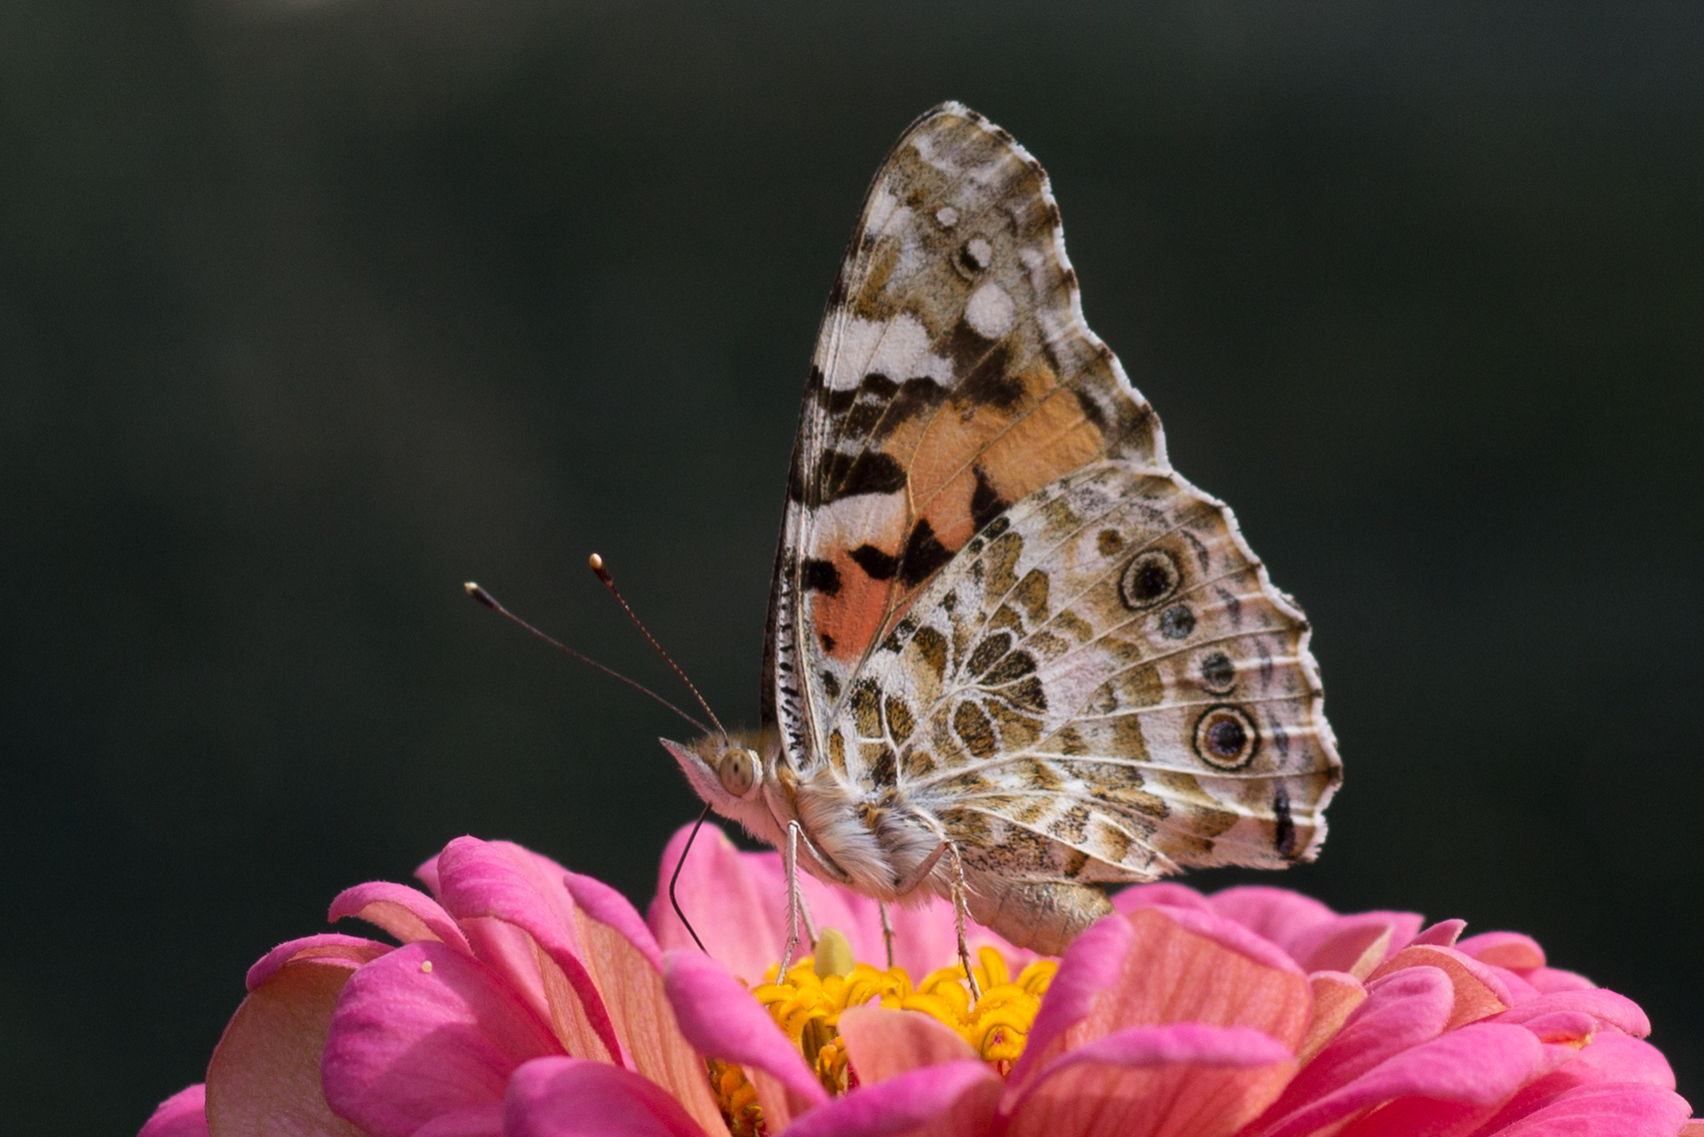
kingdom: Animalia
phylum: Arthropoda
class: Insecta
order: Lepidoptera
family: Nymphalidae
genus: Vanessa
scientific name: Vanessa cardui
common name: Painted lady
